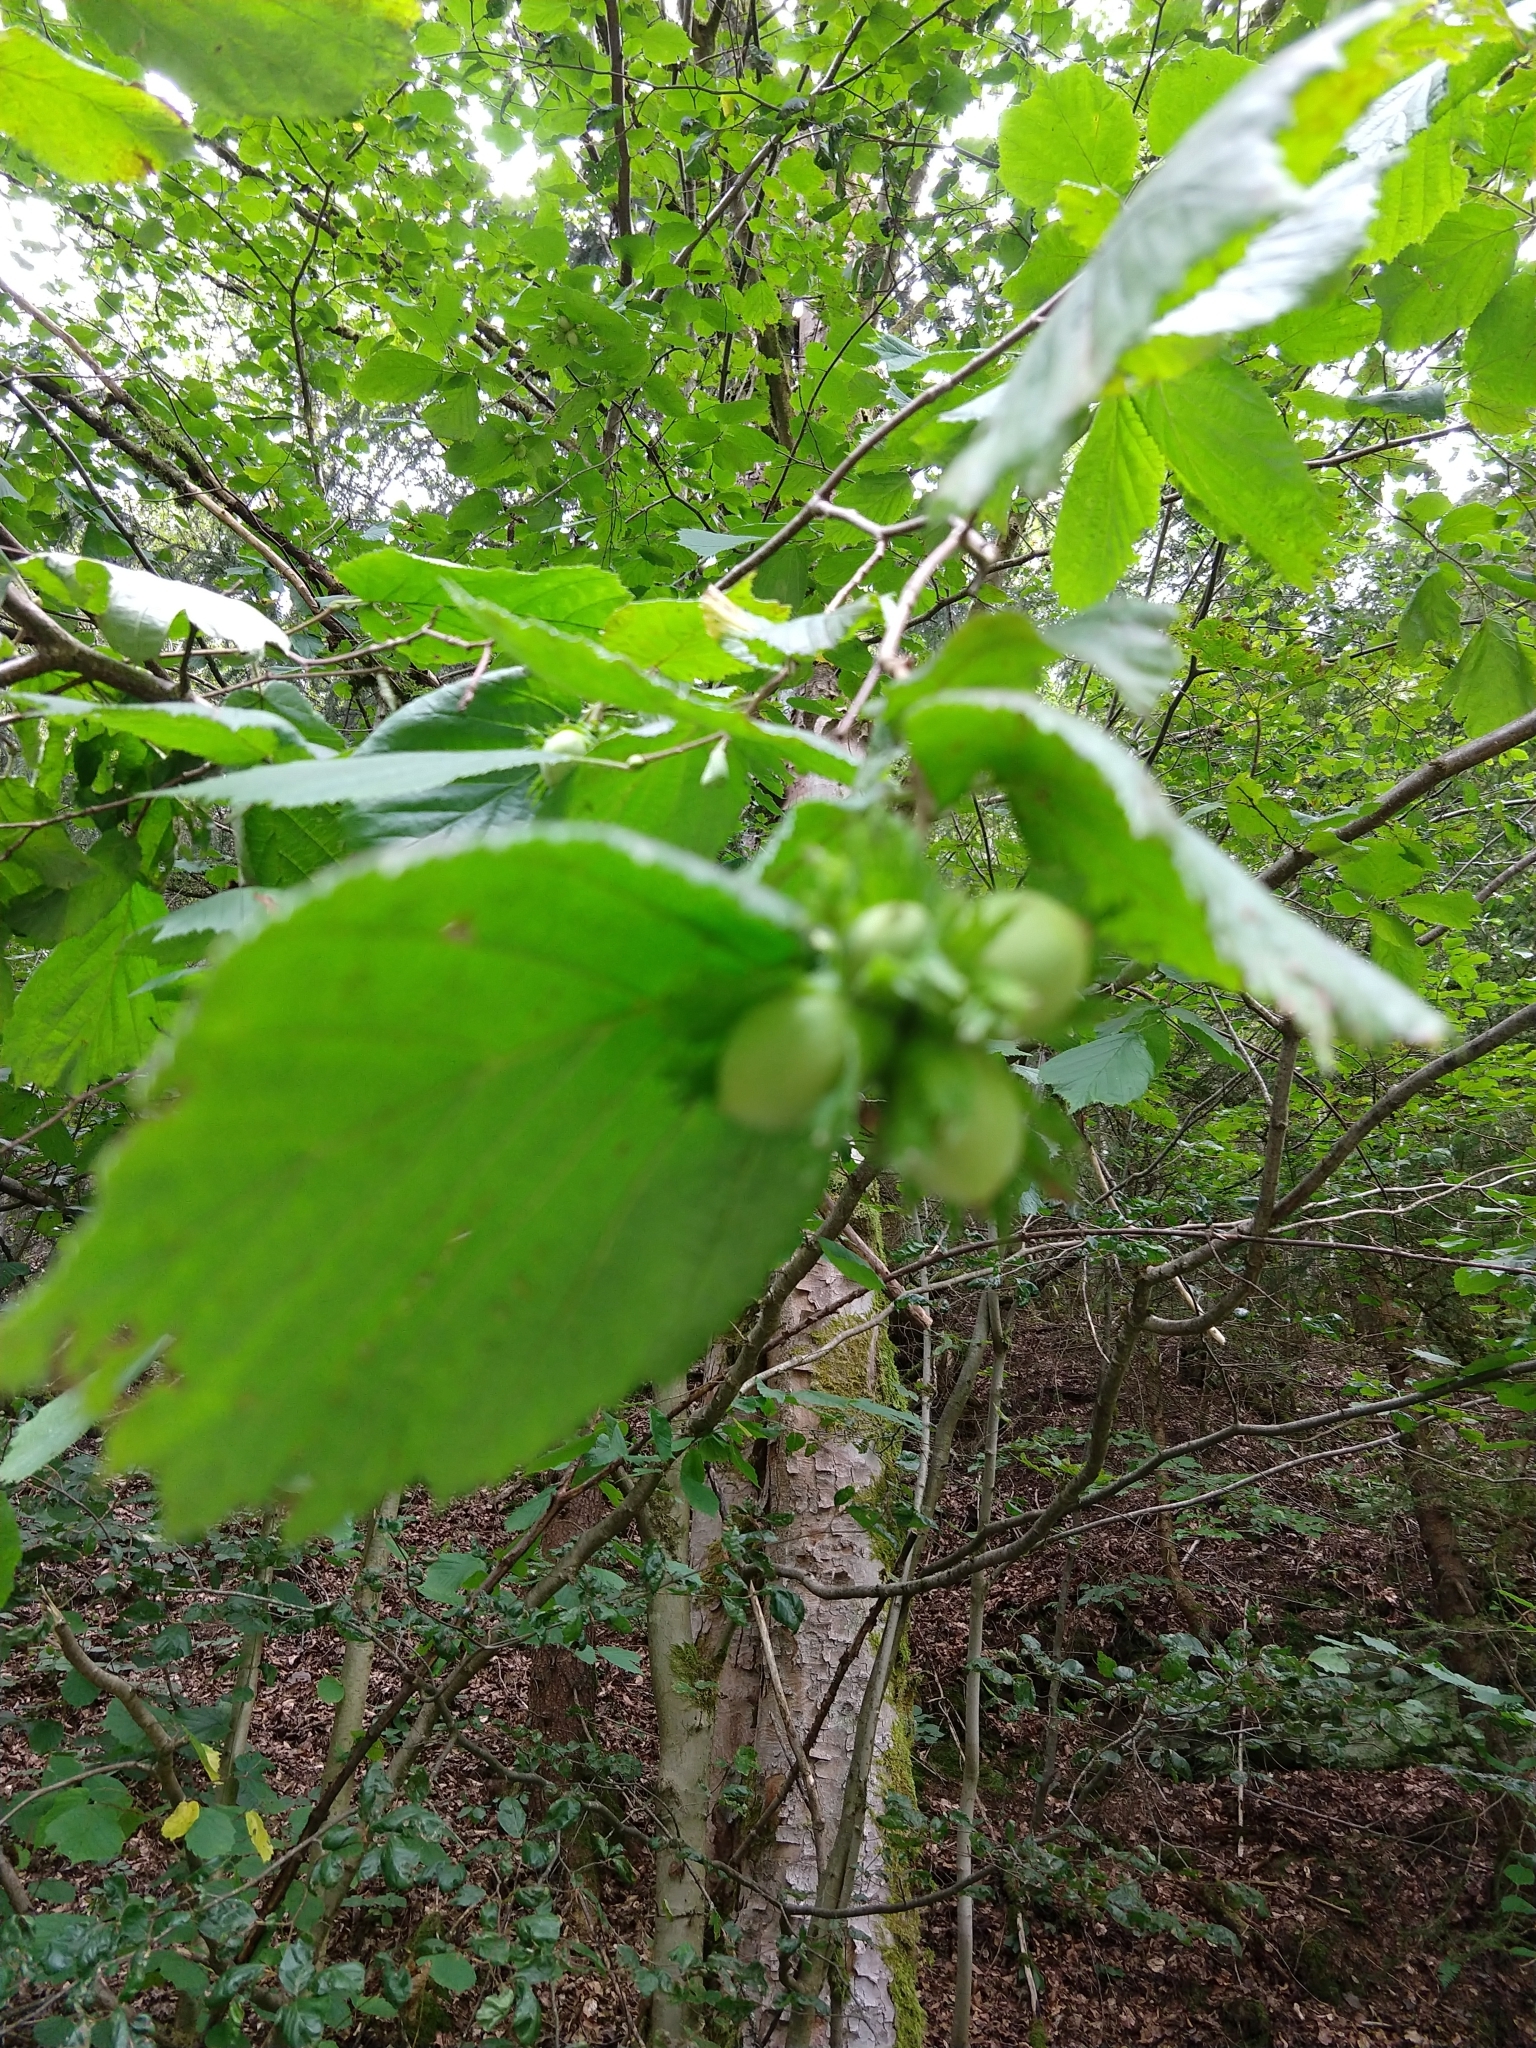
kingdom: Plantae
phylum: Tracheophyta
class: Magnoliopsida
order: Fagales
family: Betulaceae
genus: Corylus
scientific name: Corylus avellana
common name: European hazel
